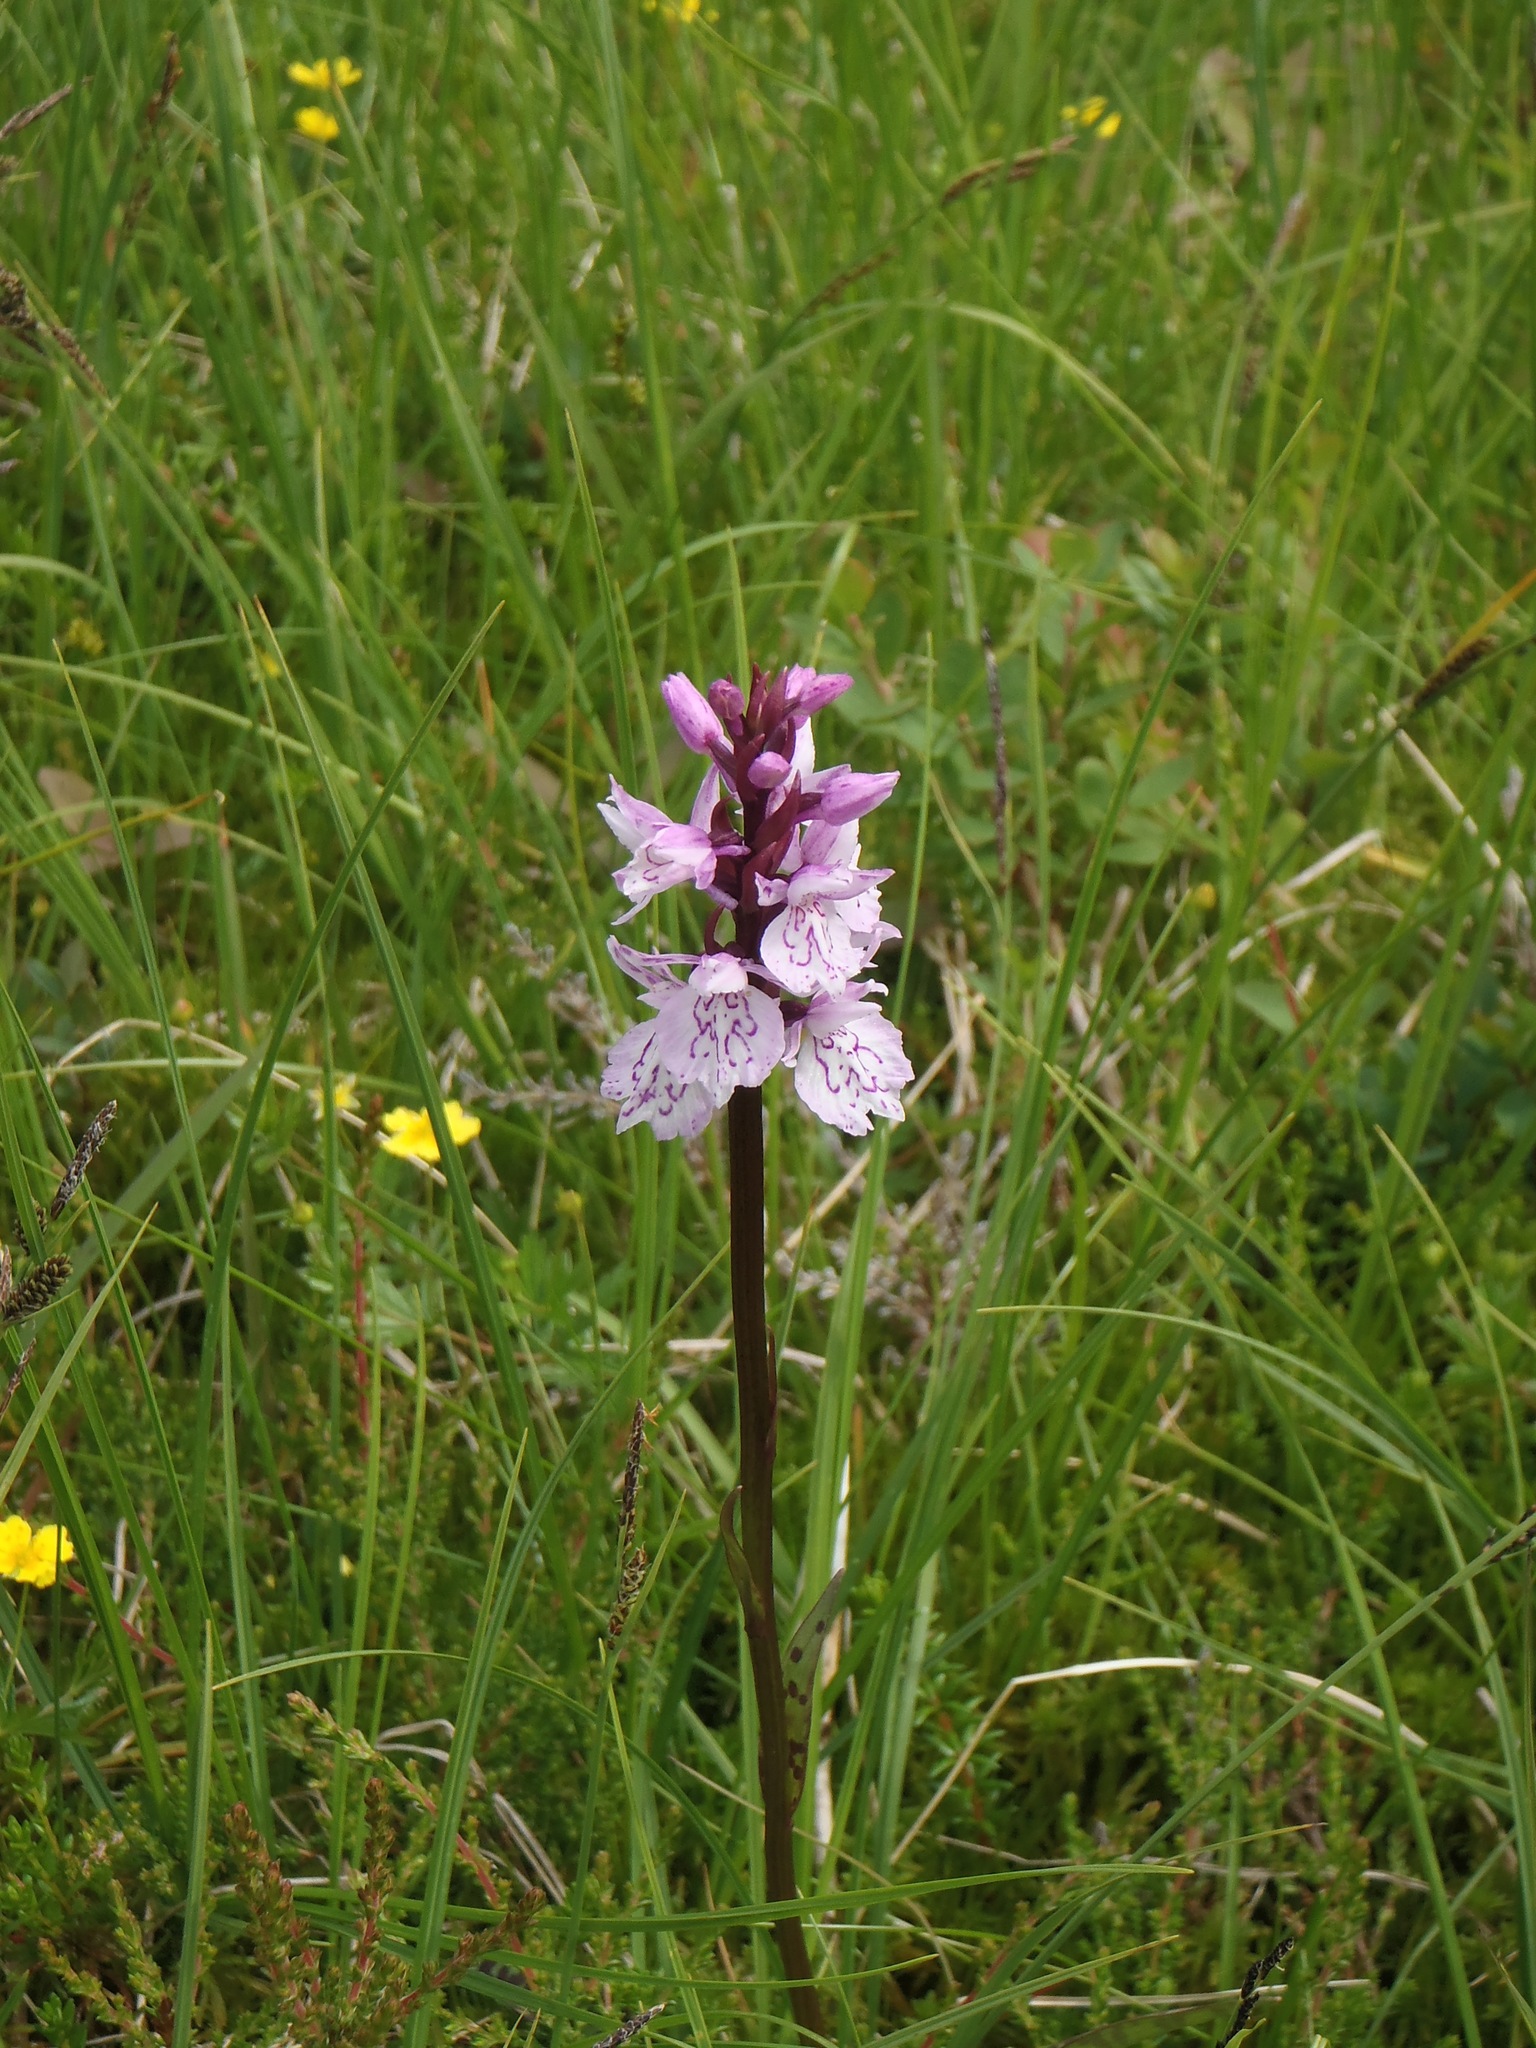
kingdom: Plantae
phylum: Tracheophyta
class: Liliopsida
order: Asparagales
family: Orchidaceae
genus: Dactylorhiza
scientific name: Dactylorhiza maculata
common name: Heath spotted-orchid
